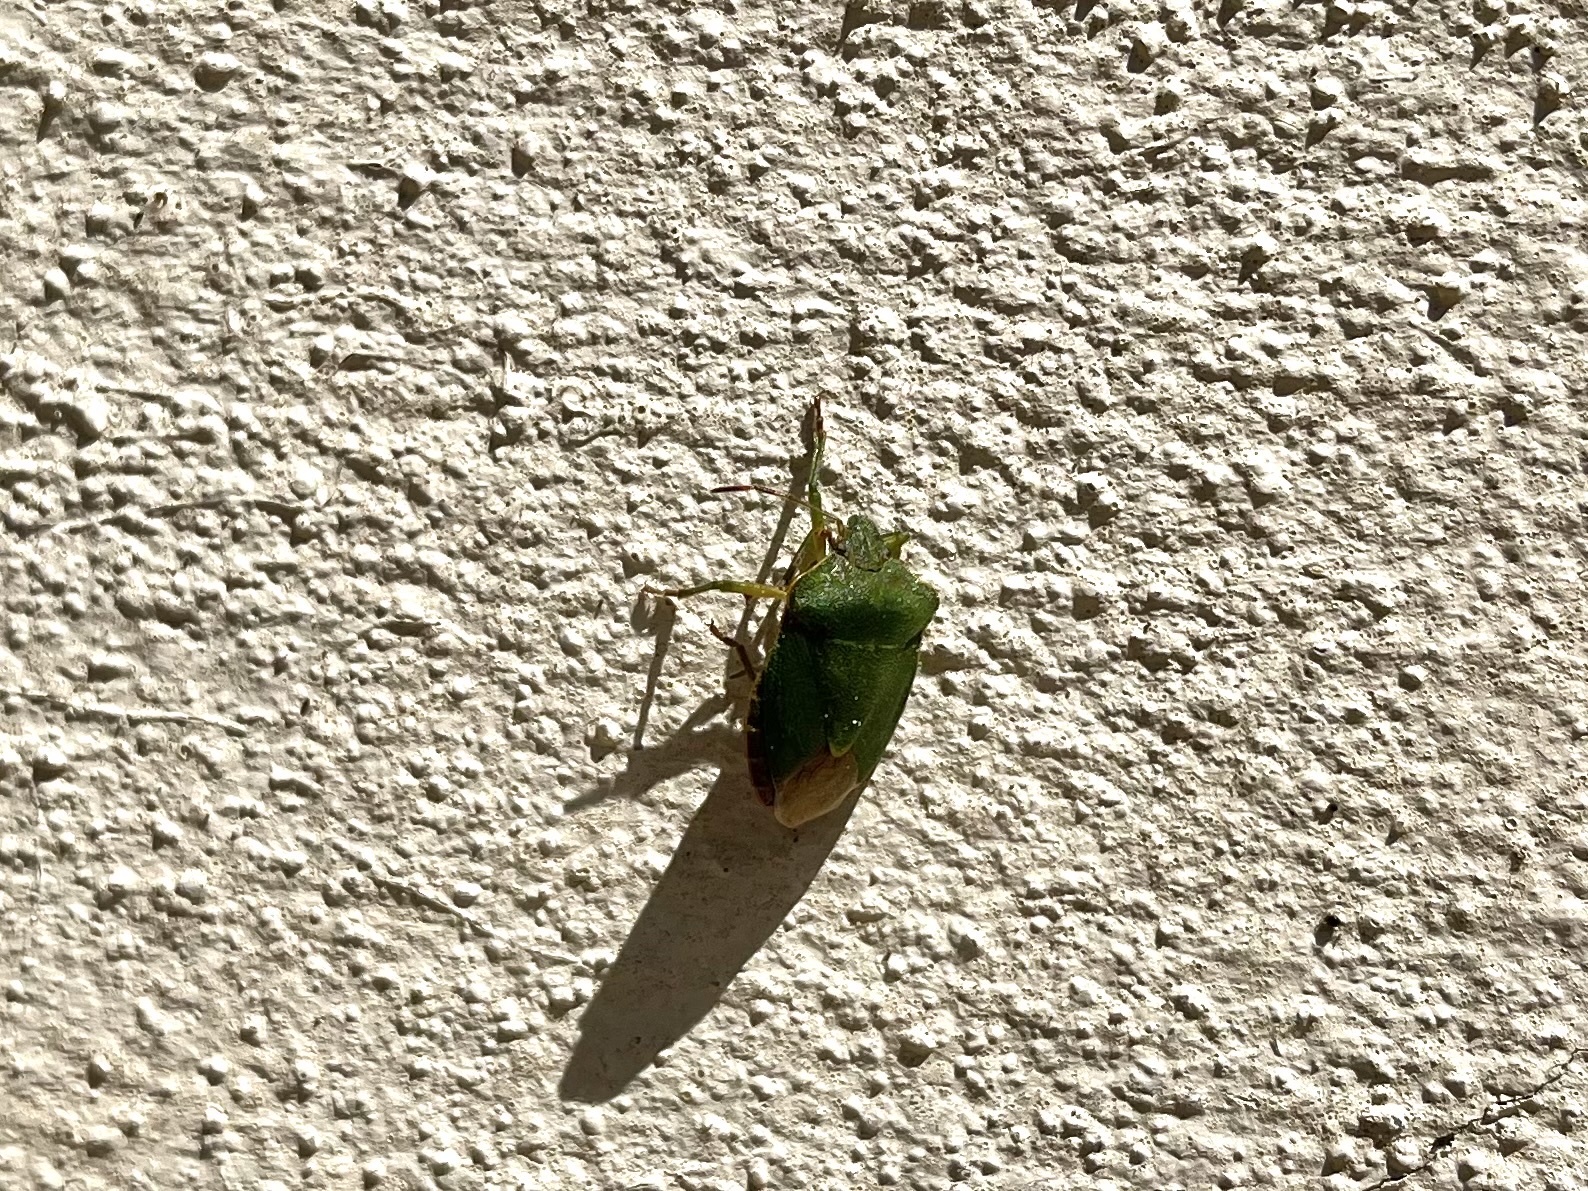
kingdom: Animalia
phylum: Arthropoda
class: Insecta
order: Hemiptera
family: Pentatomidae
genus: Palomena
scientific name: Palomena prasina
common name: Green shieldbug
